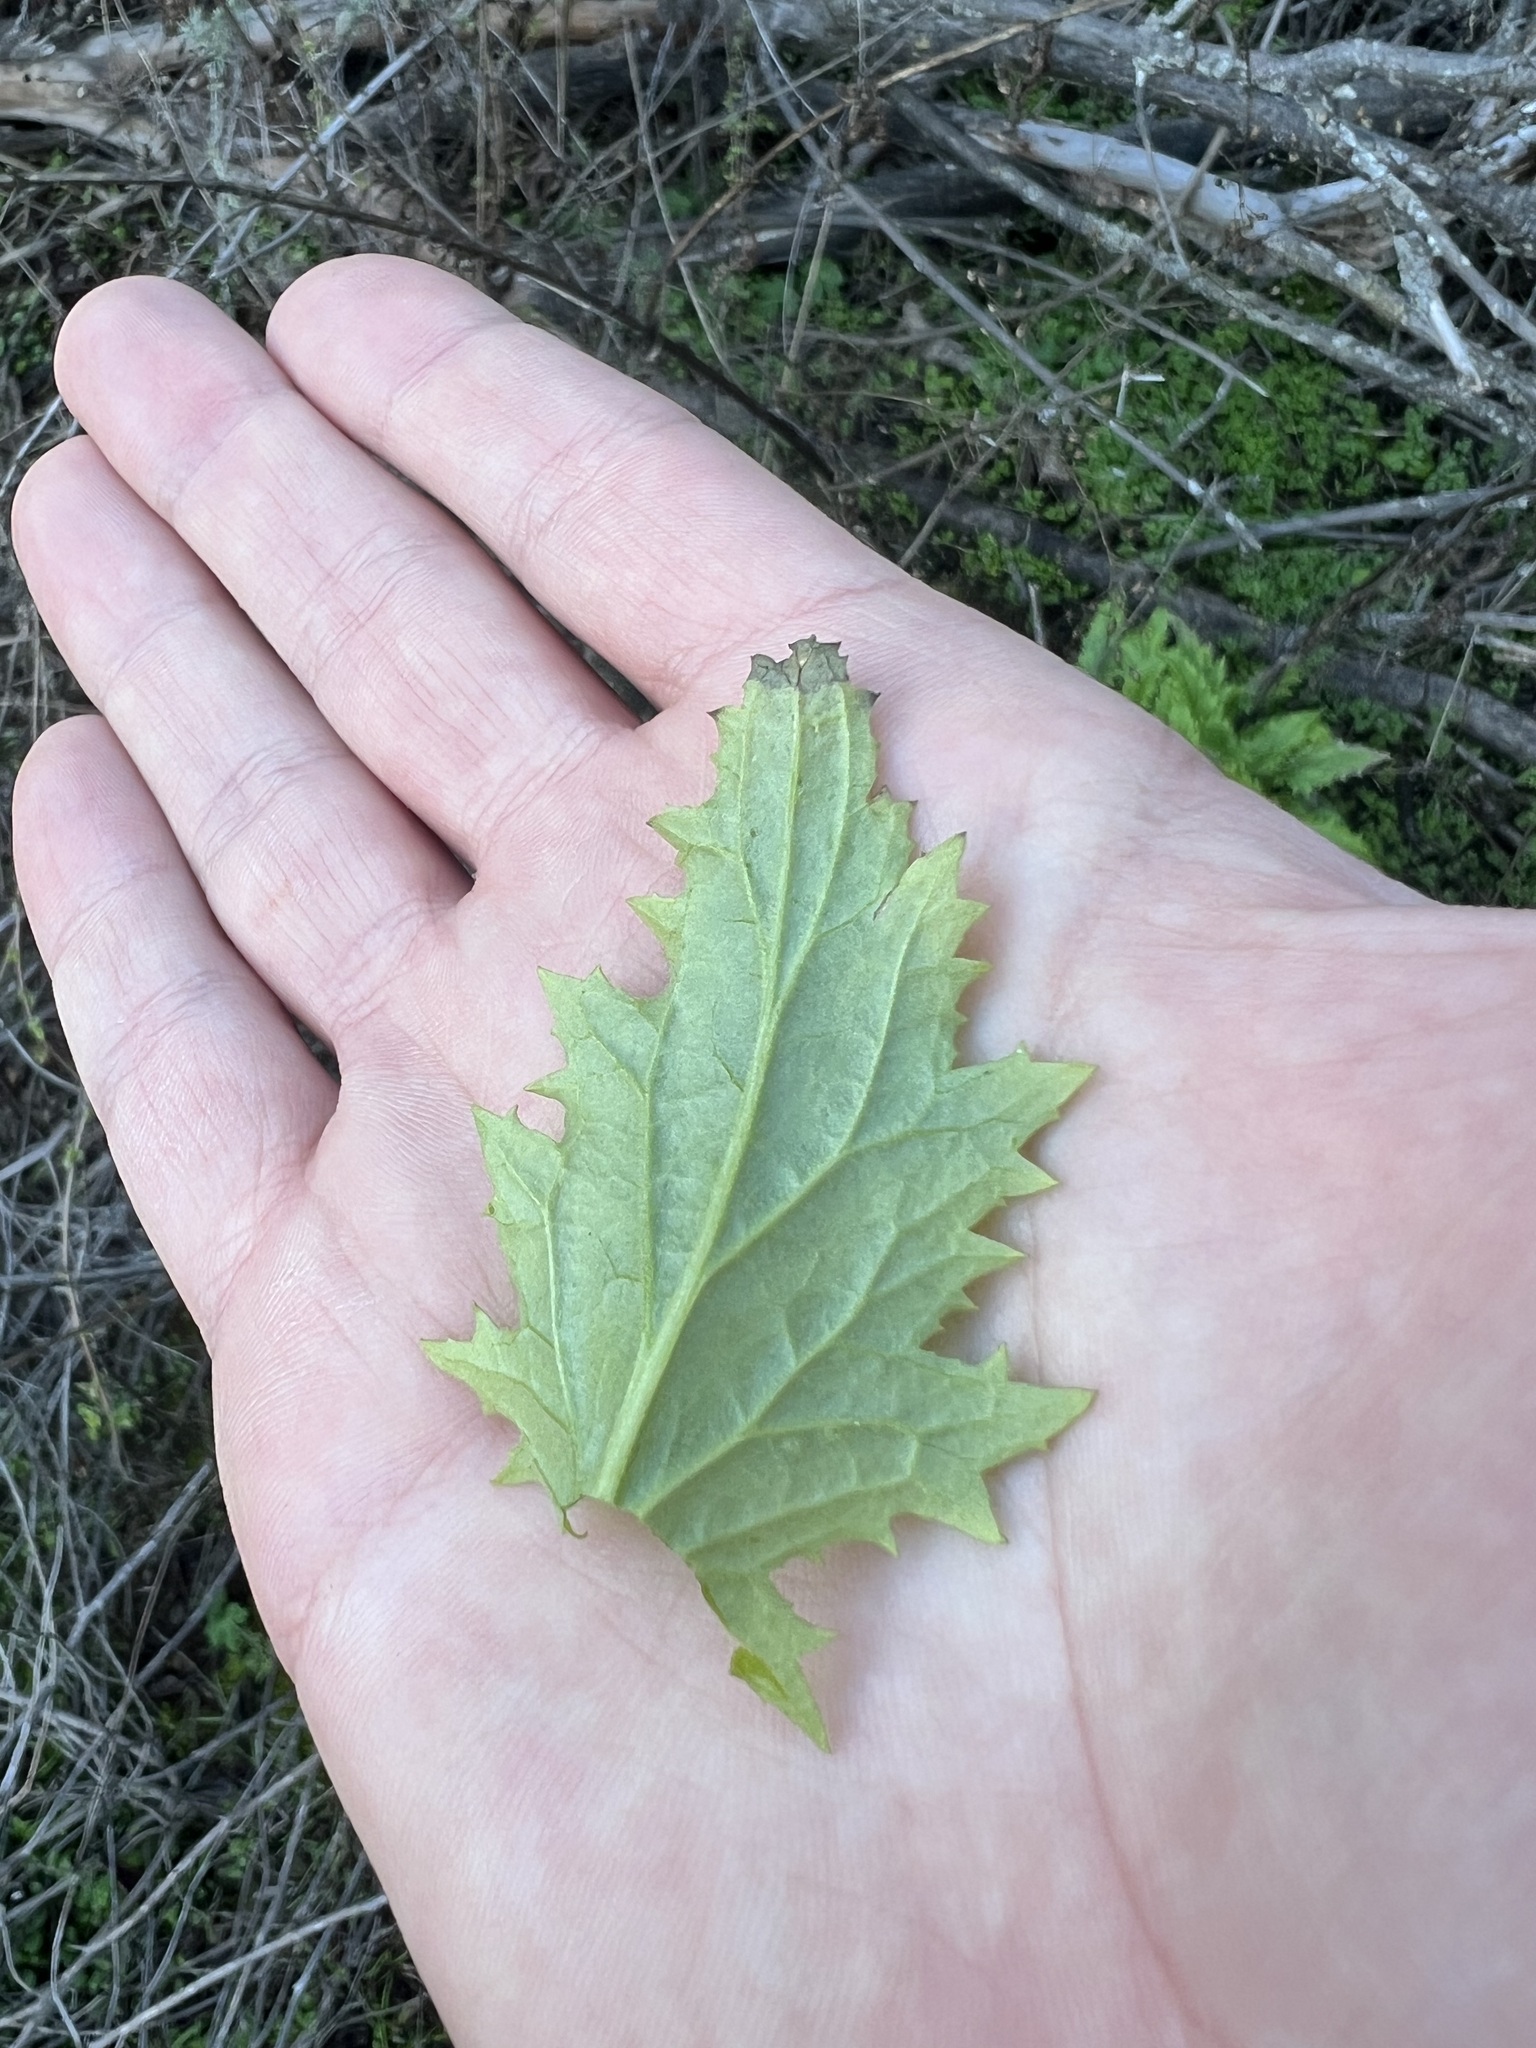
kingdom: Plantae
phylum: Tracheophyta
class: Magnoliopsida
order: Lamiales
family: Scrophulariaceae
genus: Scrophularia
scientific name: Scrophularia californica
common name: California figwort
